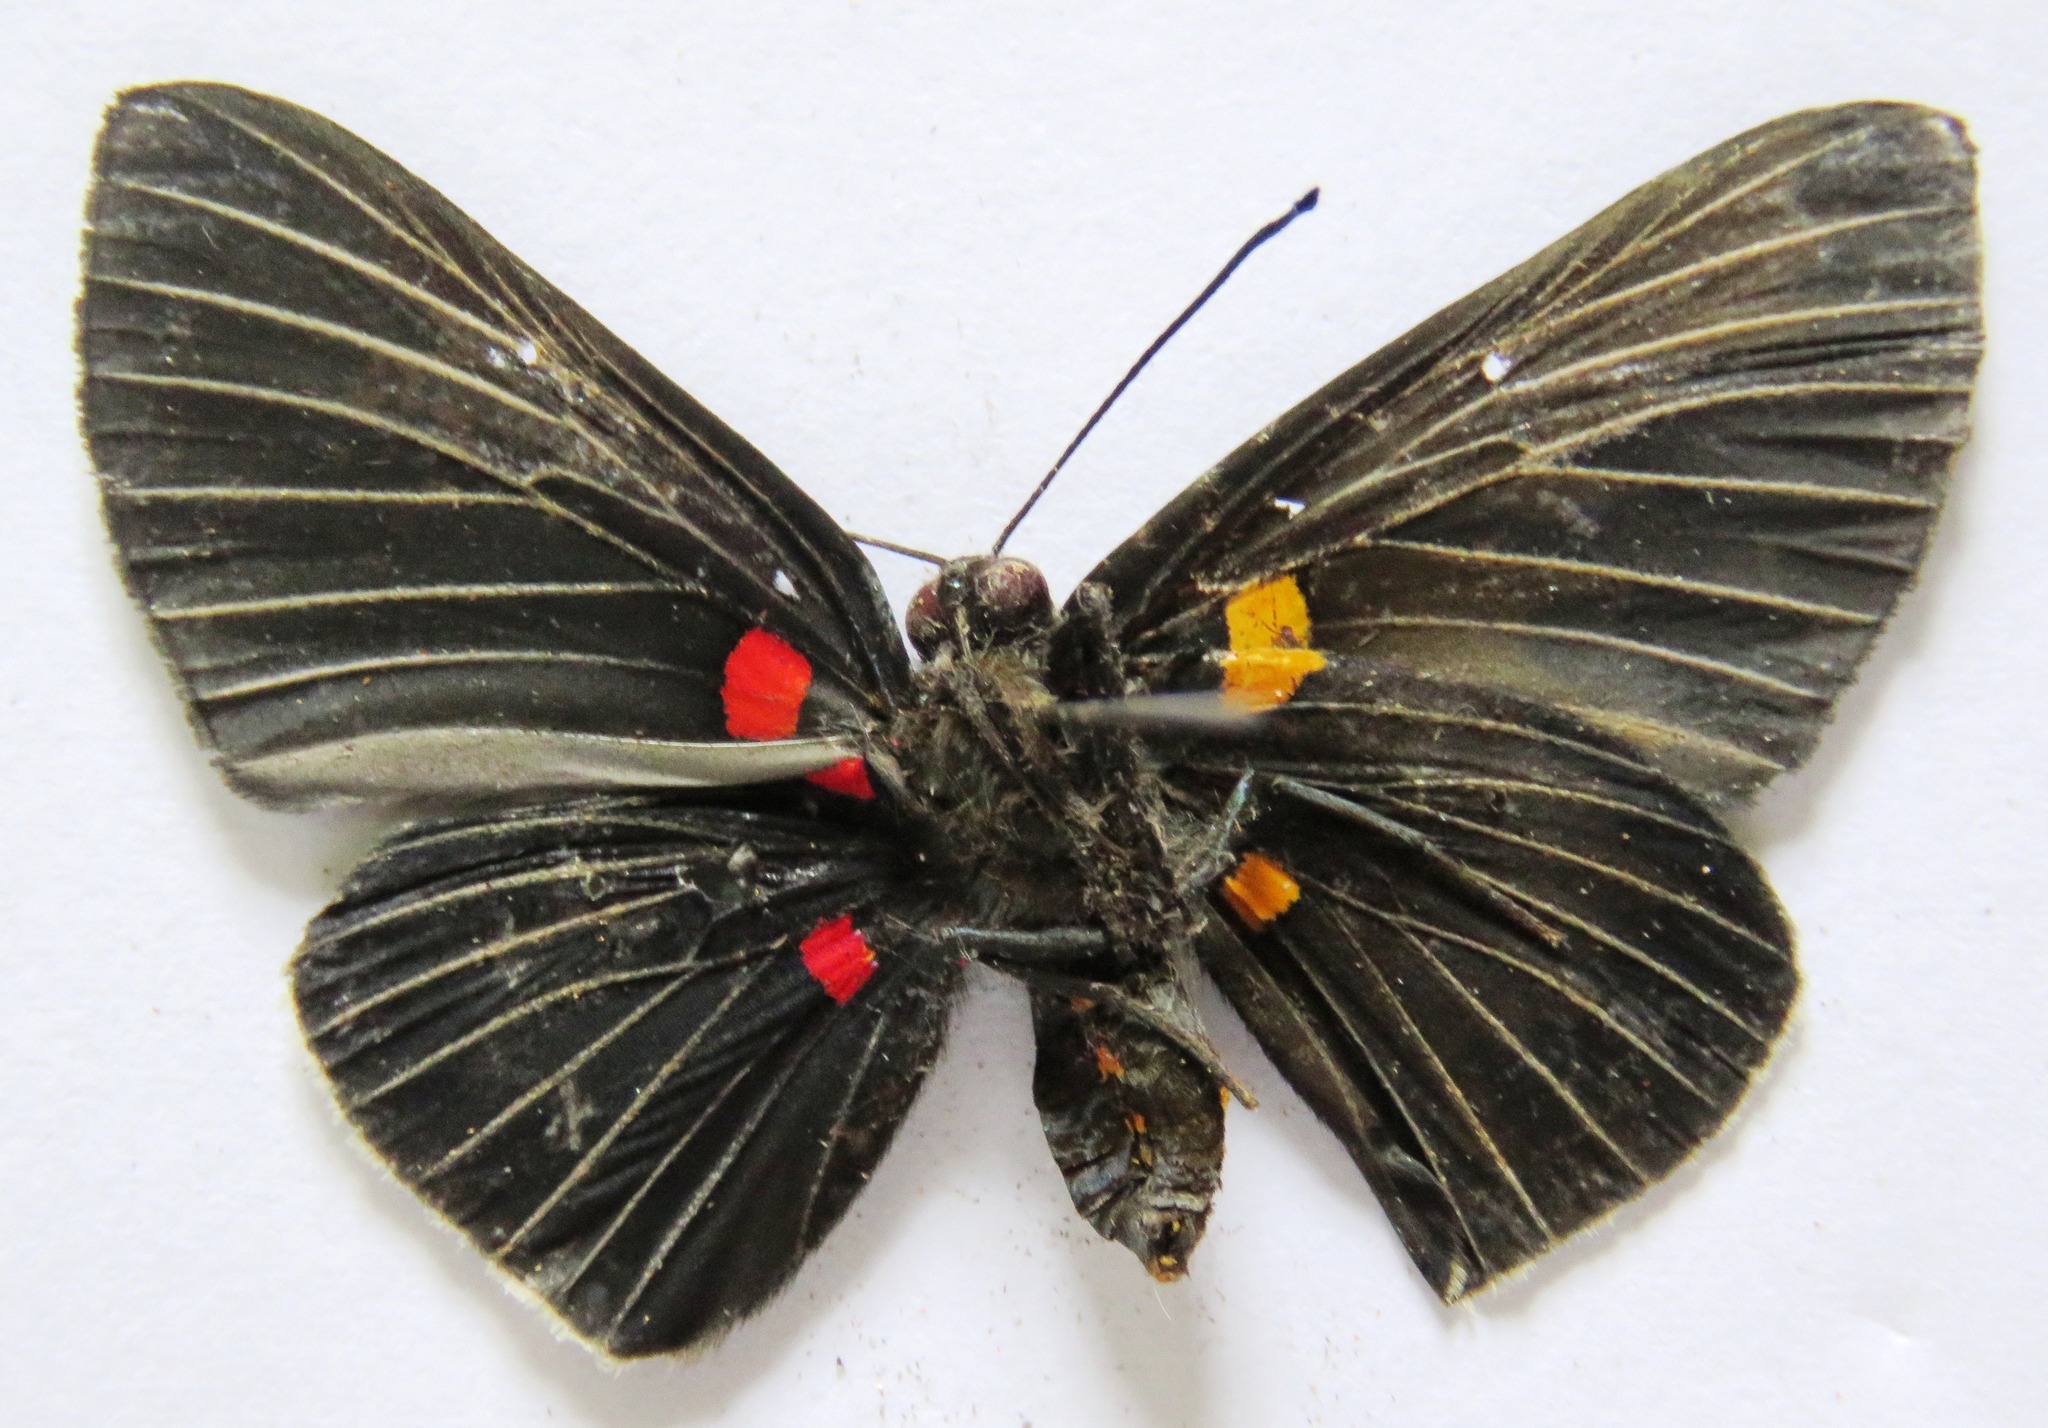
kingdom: Animalia
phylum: Arthropoda
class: Insecta
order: Lepidoptera
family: Lycaenidae
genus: Melanis
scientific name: Melanis
